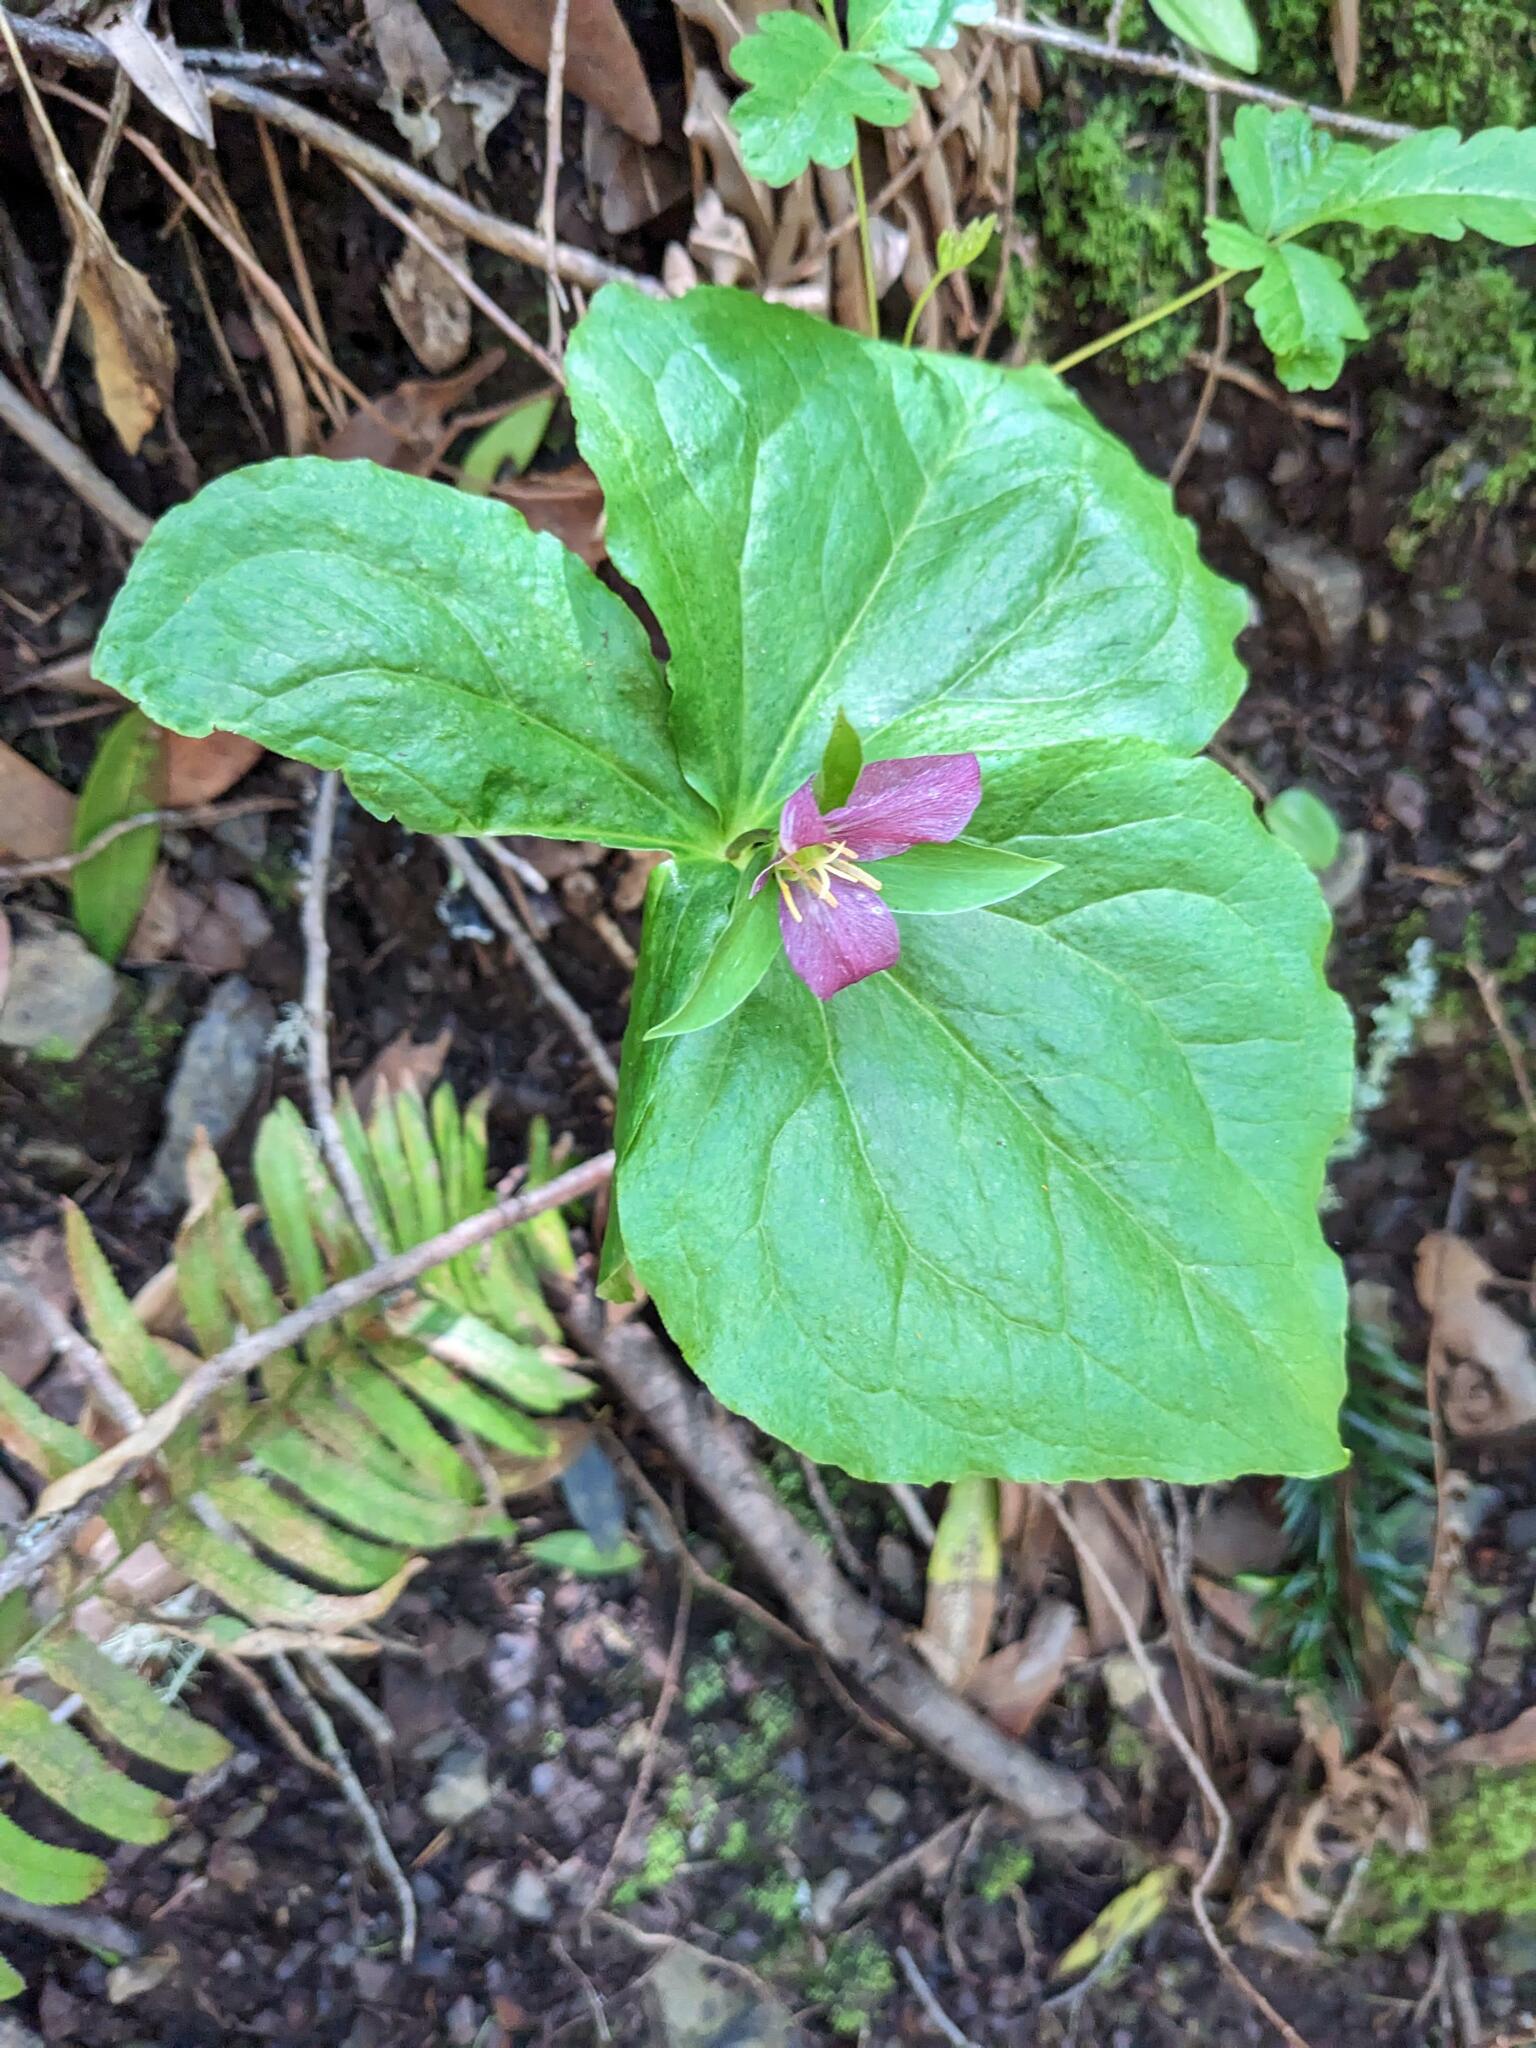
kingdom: Plantae
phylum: Tracheophyta
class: Liliopsida
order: Liliales
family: Melanthiaceae
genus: Trillium
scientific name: Trillium ovatum
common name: Pacific trillium
